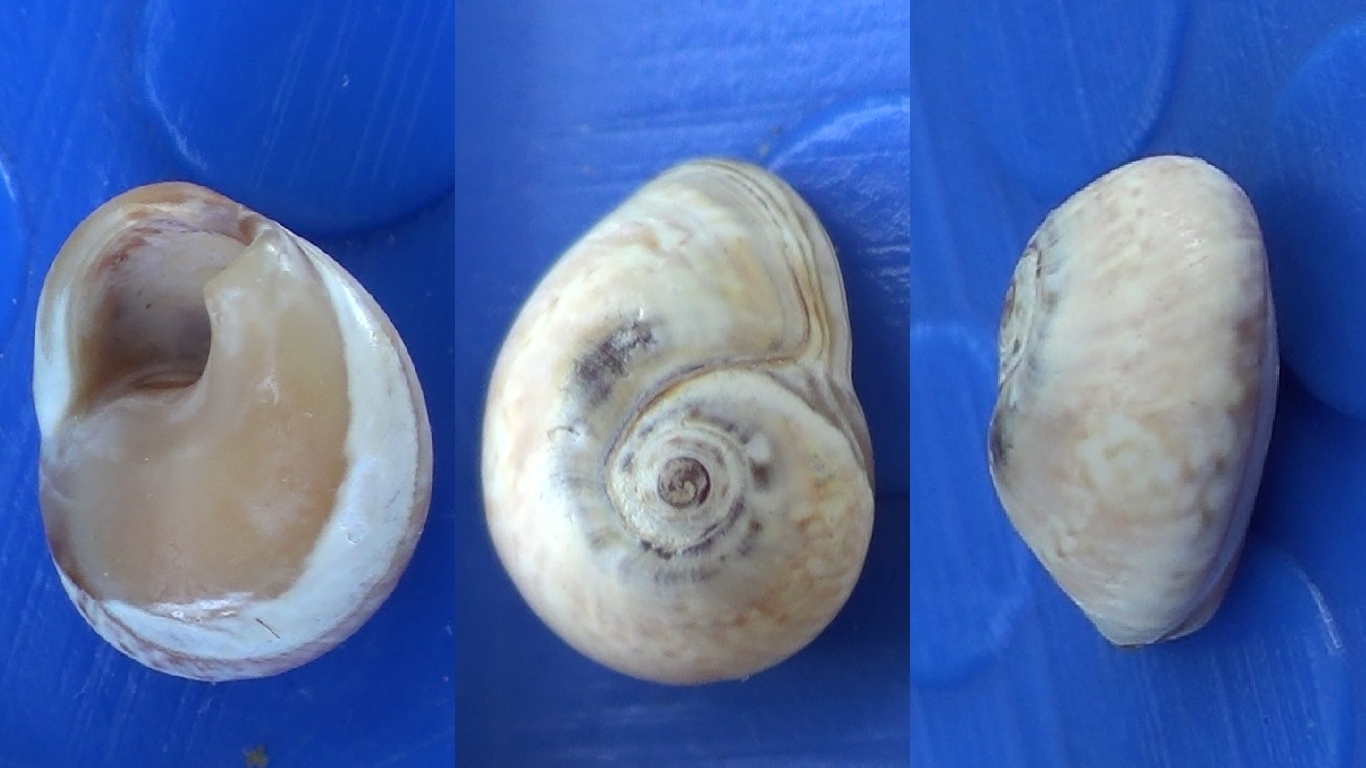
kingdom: Animalia
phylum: Mollusca
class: Gastropoda
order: Neogastropoda
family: Nassariidae
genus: Tritia
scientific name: Tritia neritea
